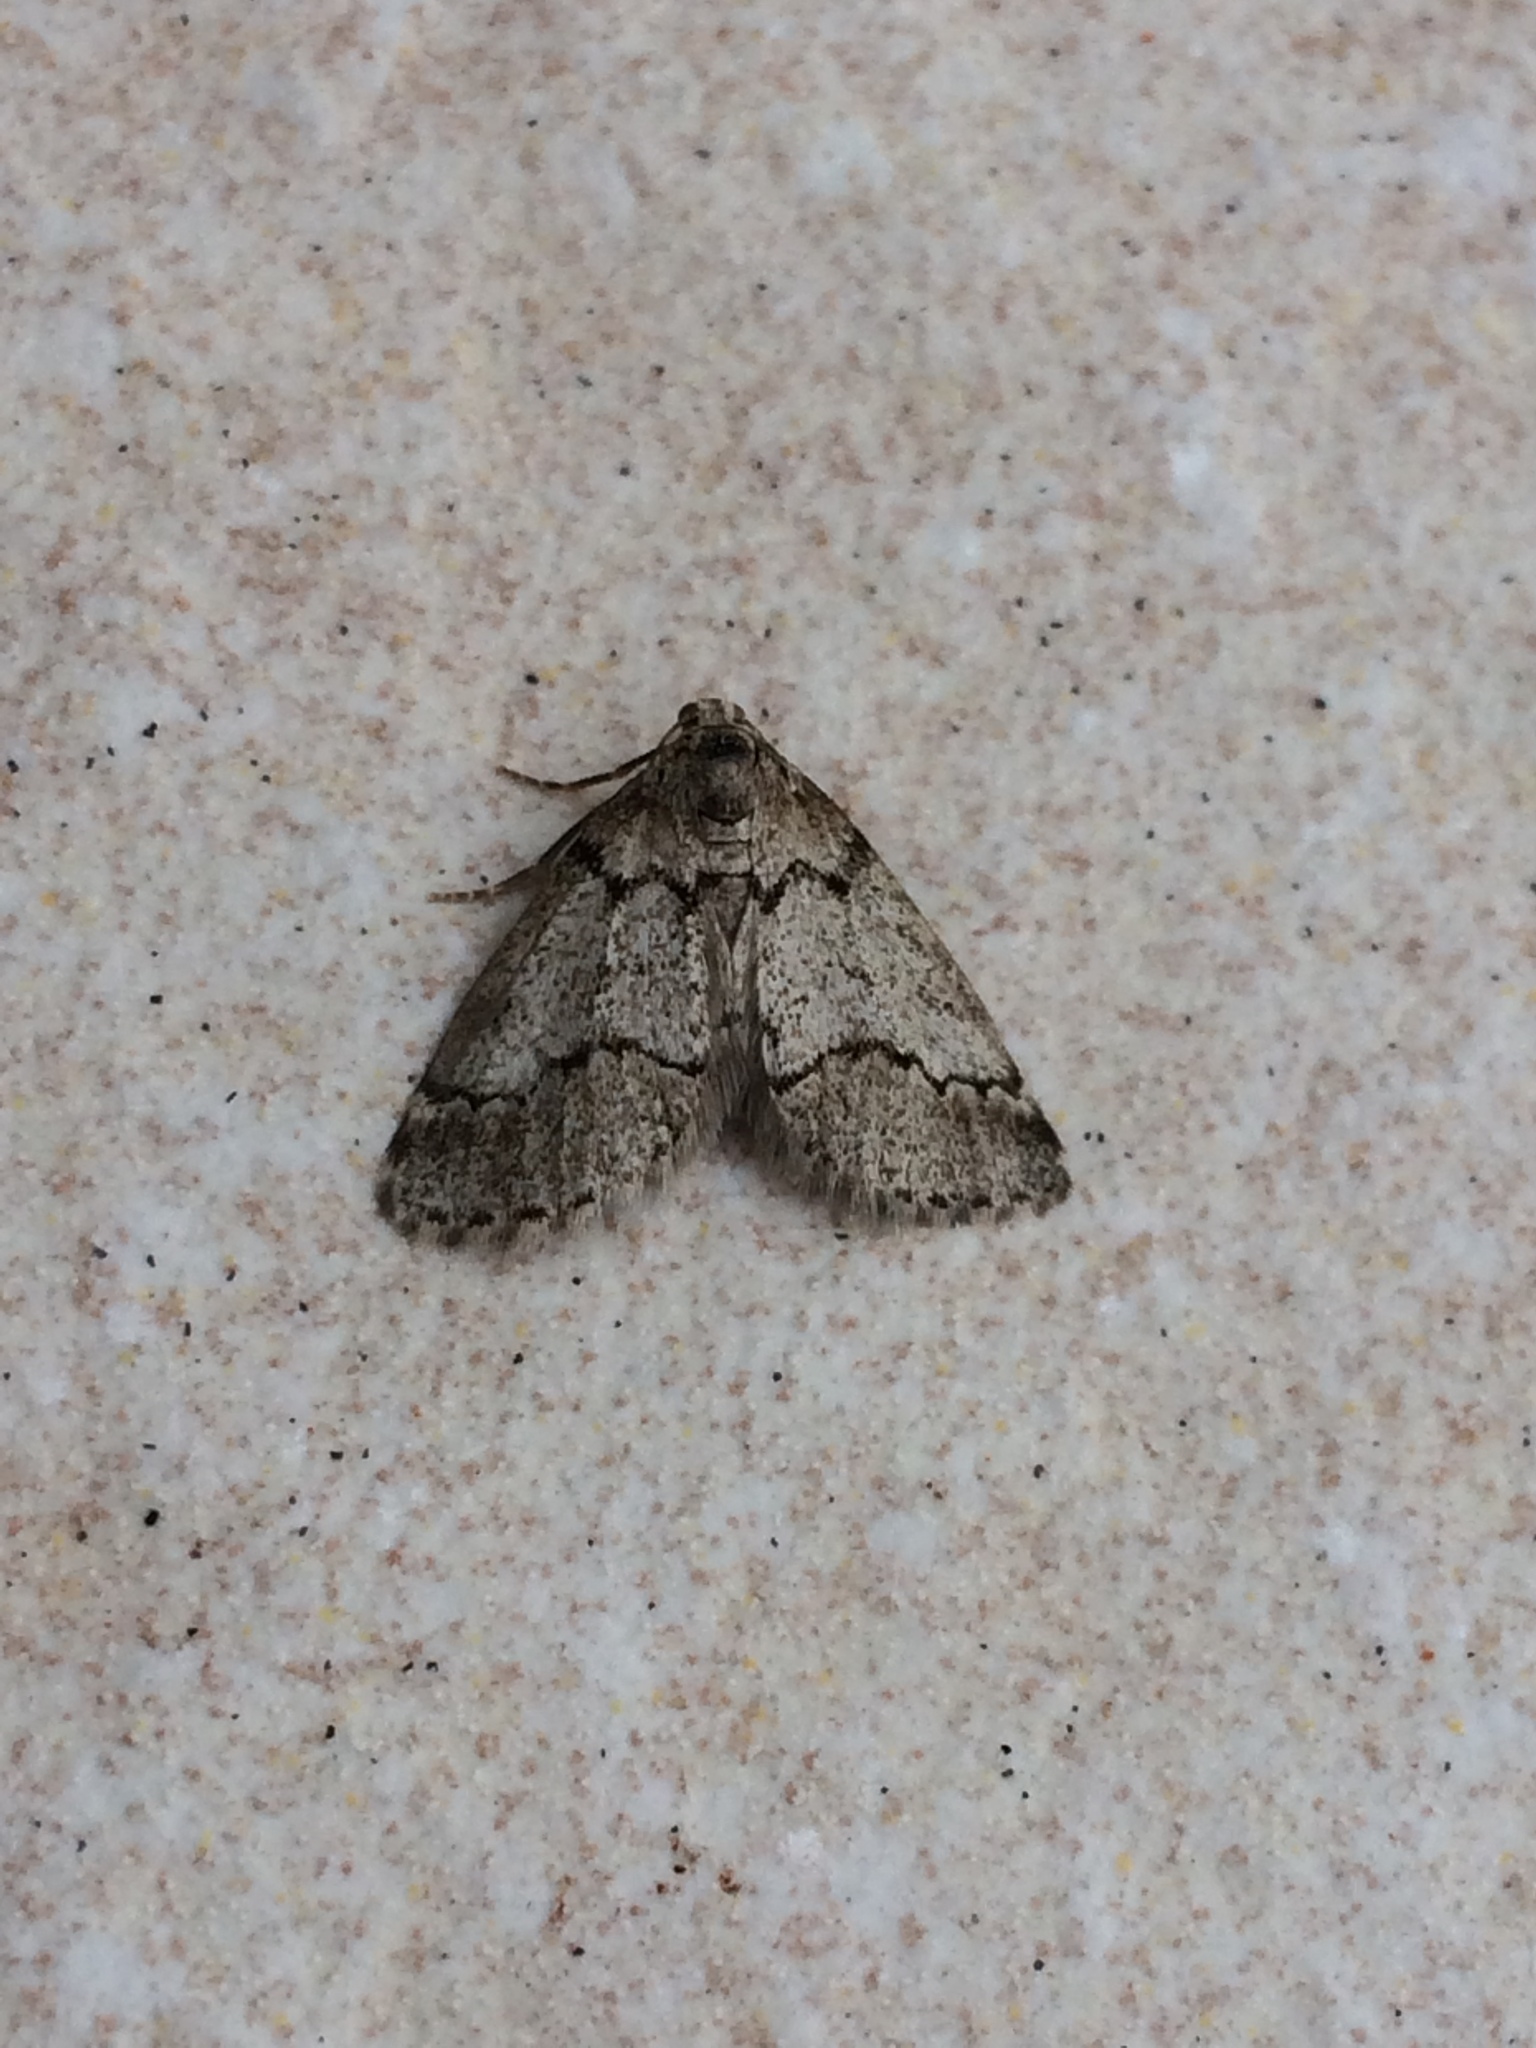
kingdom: Animalia
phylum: Arthropoda
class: Insecta
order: Lepidoptera
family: Geometridae
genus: Tephronia
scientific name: Tephronia sepiaria
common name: Dusky carpet
